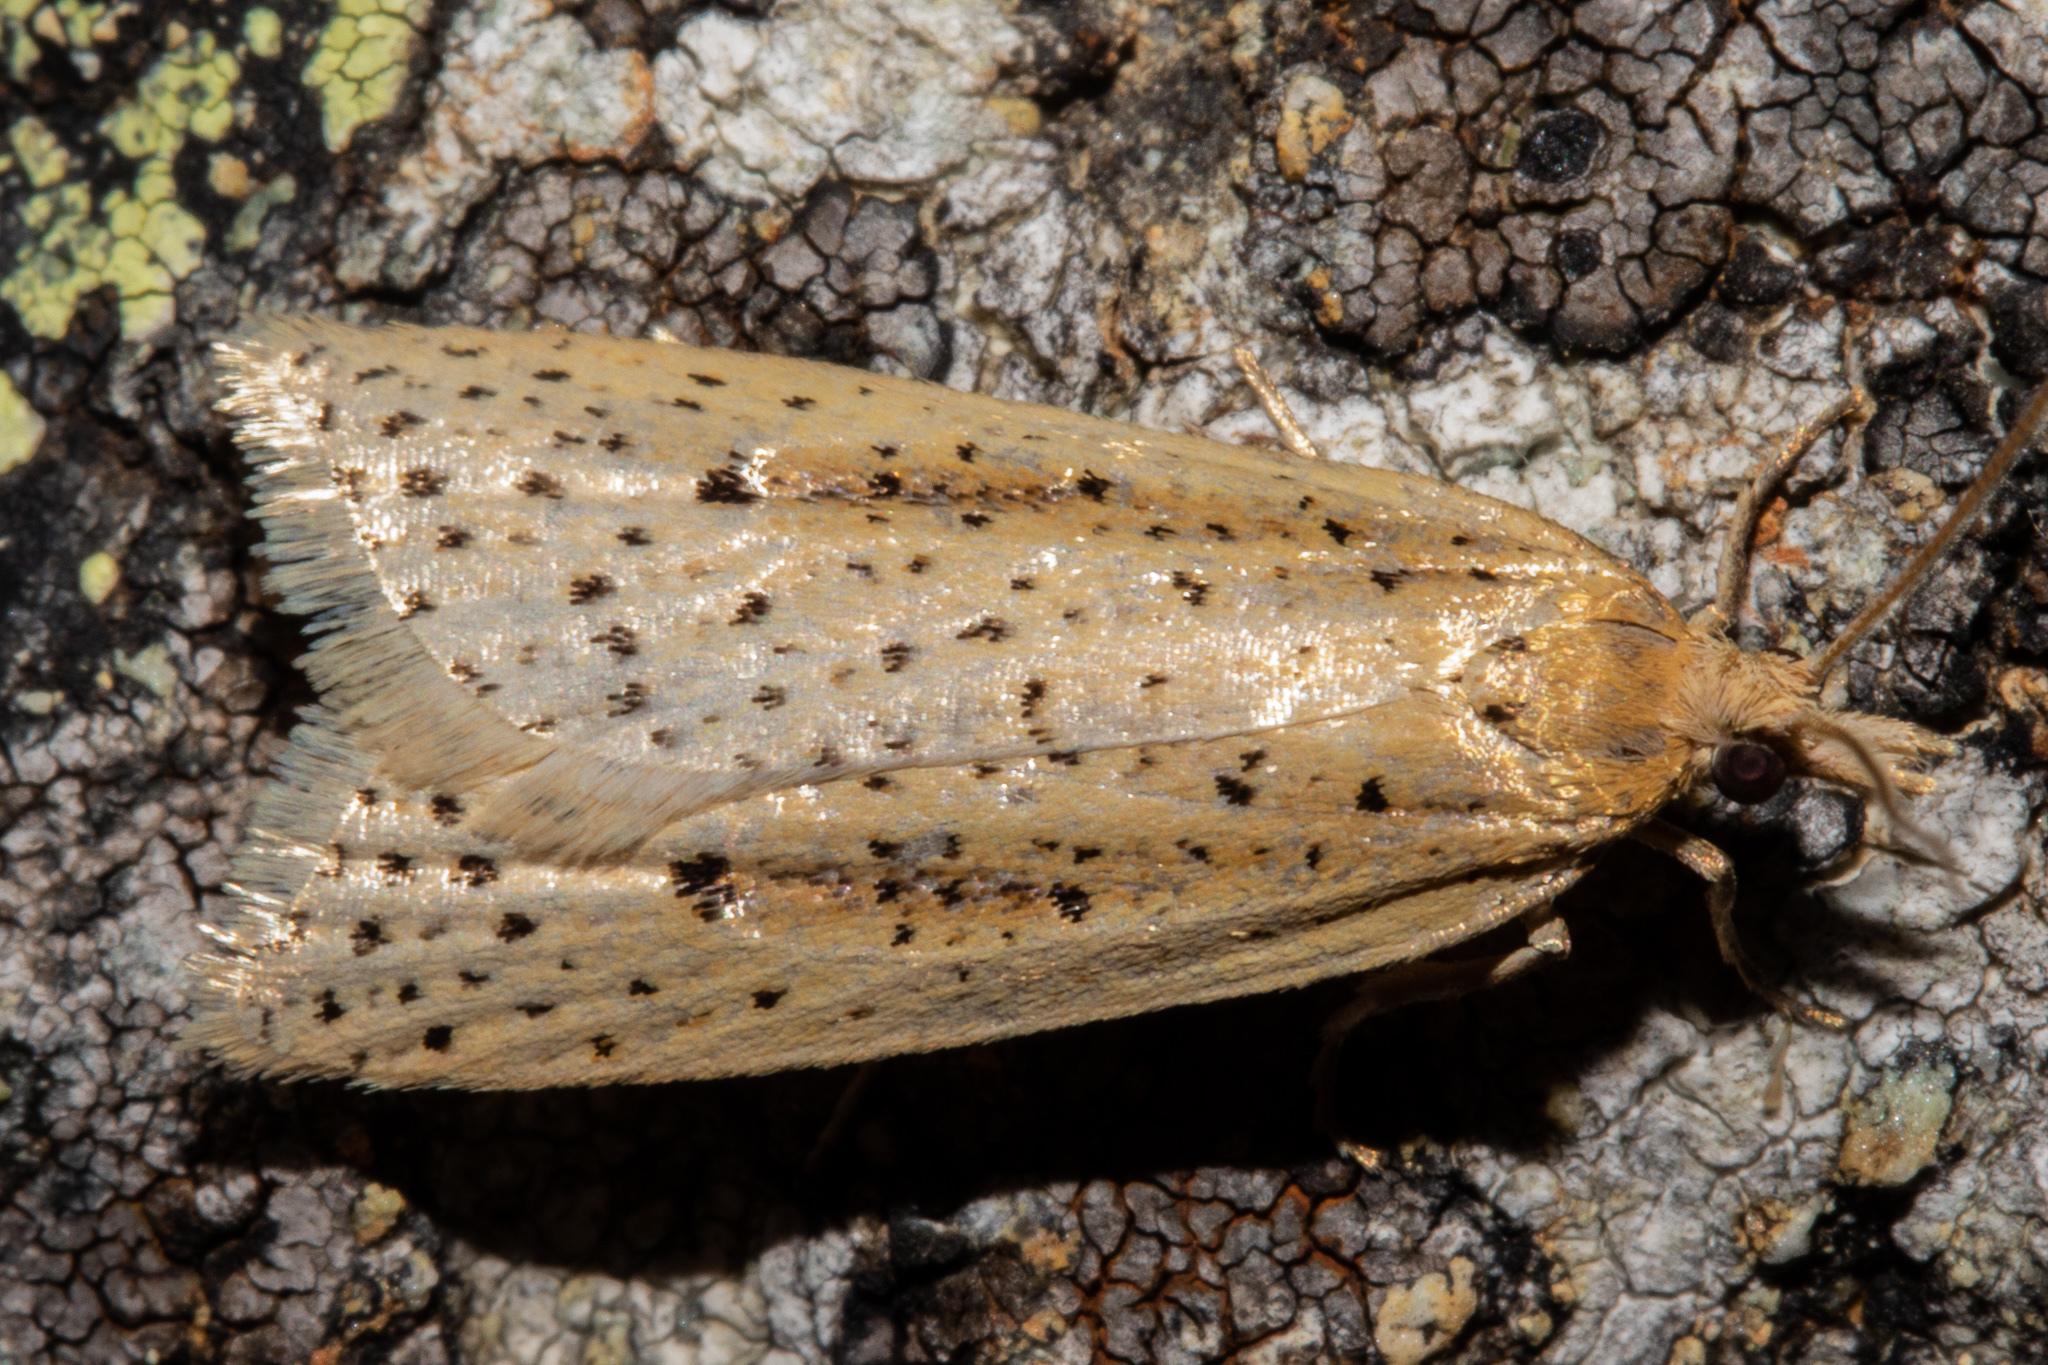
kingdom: Animalia
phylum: Arthropoda
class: Insecta
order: Lepidoptera
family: Tortricidae
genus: Apoctena
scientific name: Apoctena conditana
